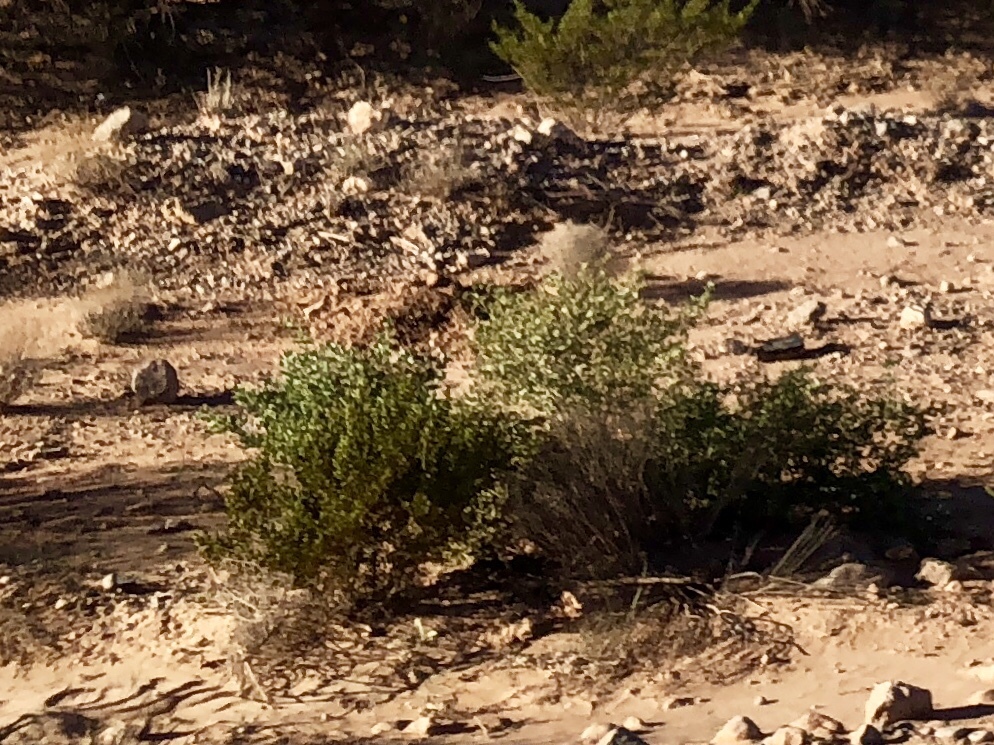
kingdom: Plantae
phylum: Tracheophyta
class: Magnoliopsida
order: Zygophyllales
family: Zygophyllaceae
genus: Larrea
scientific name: Larrea tridentata
